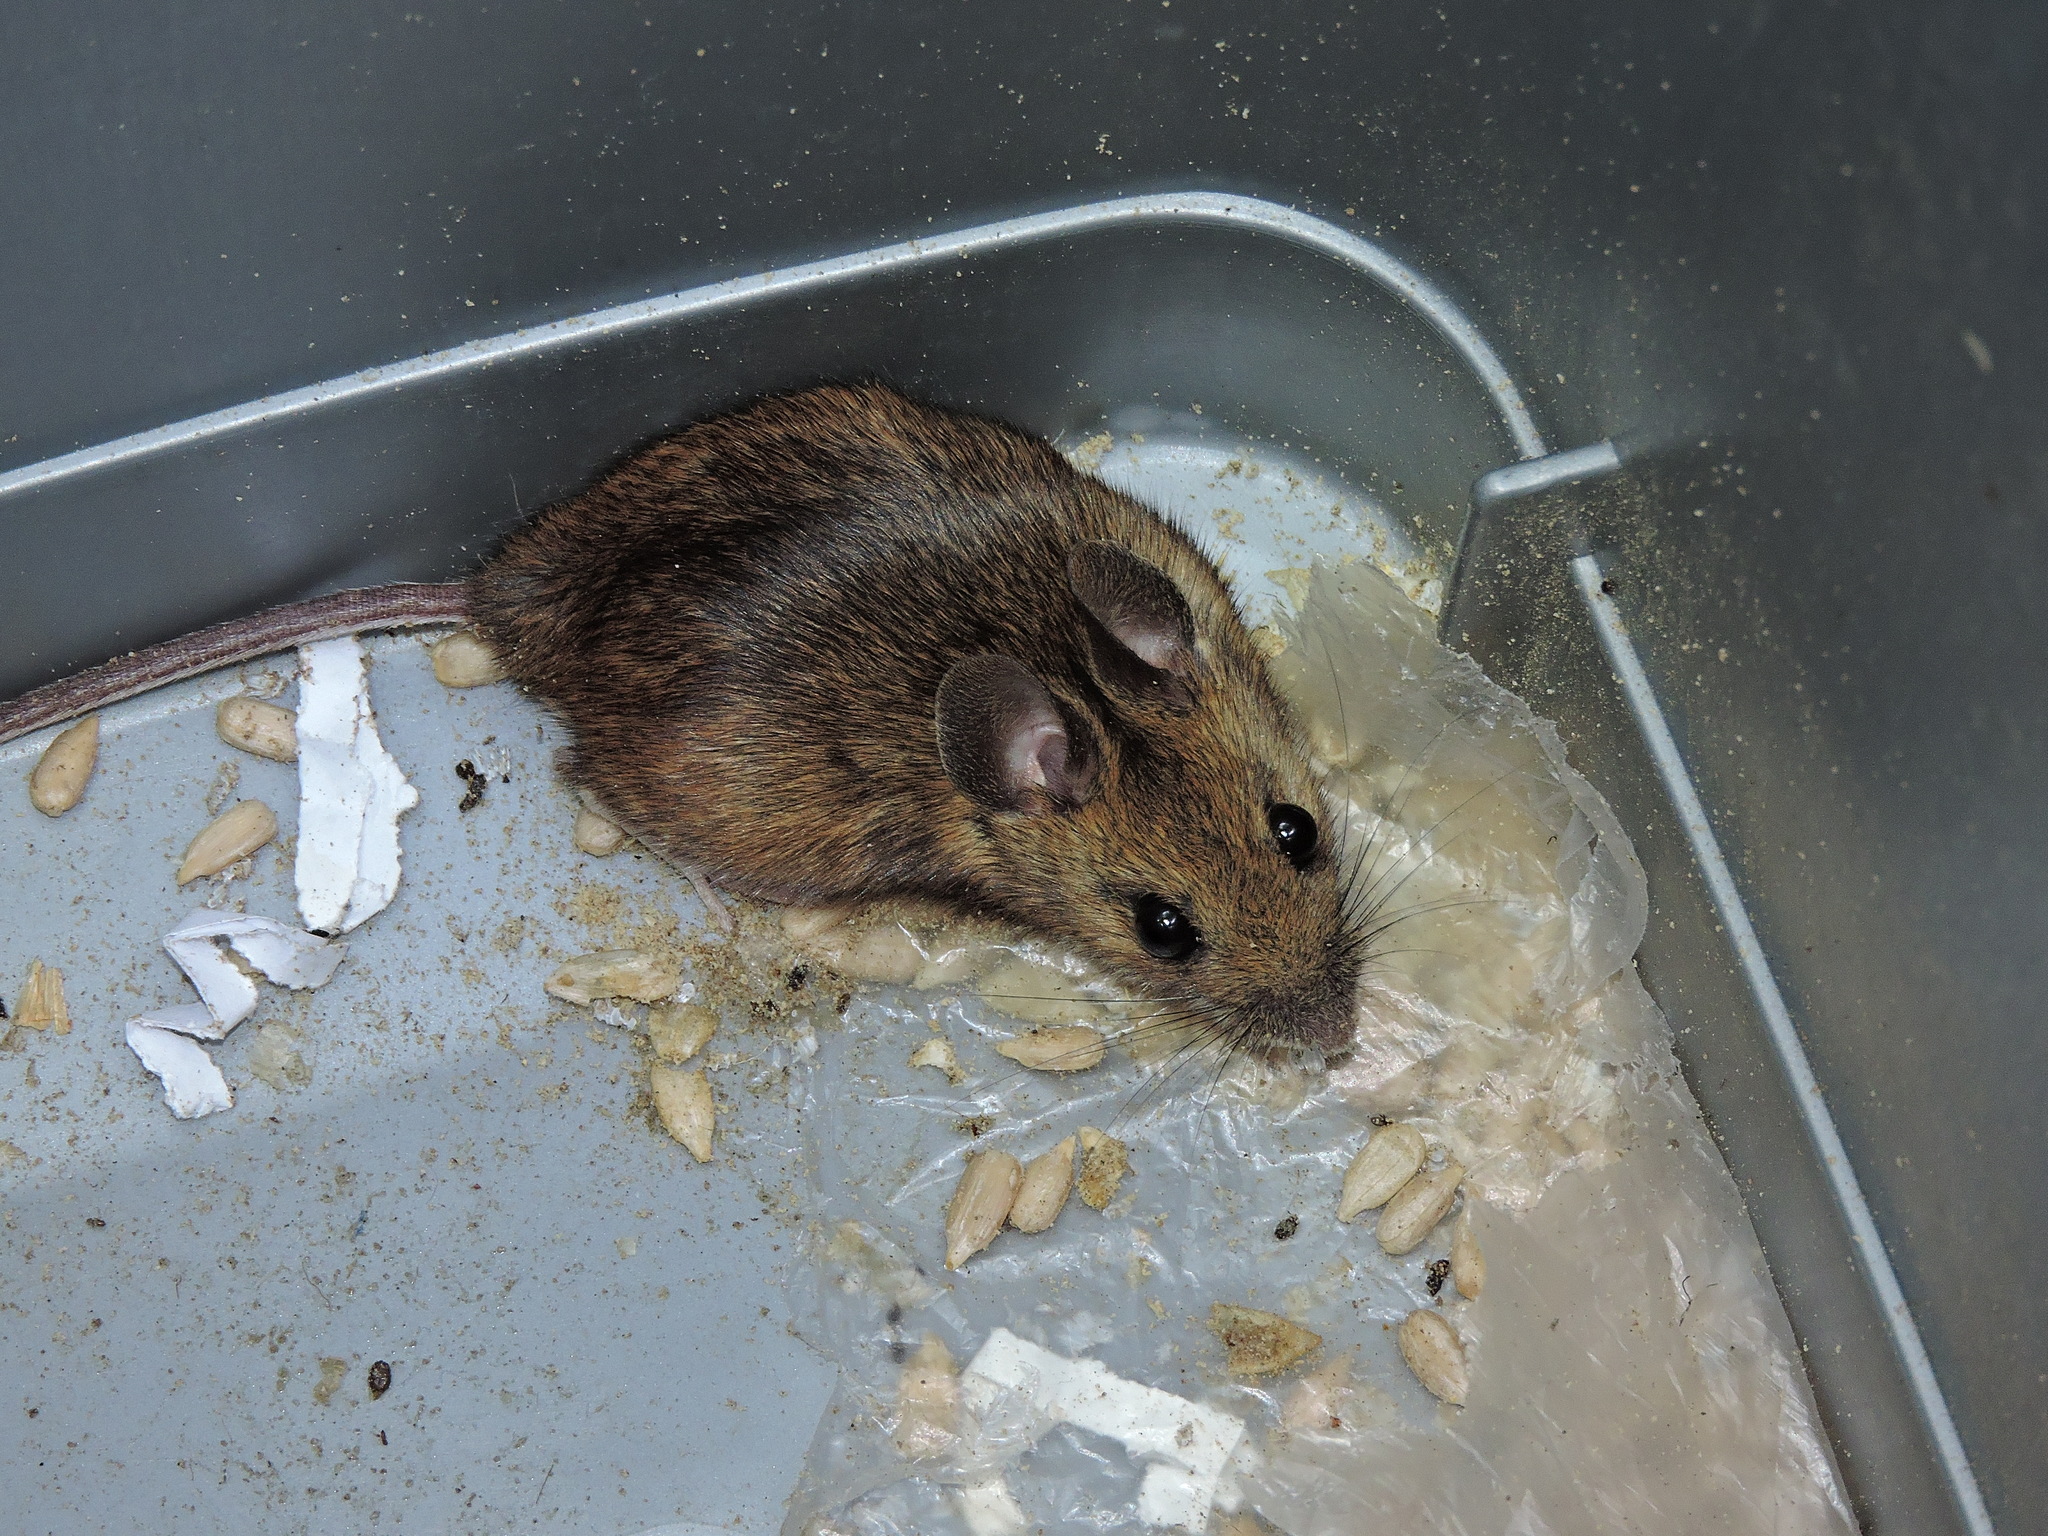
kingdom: Animalia
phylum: Chordata
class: Mammalia
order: Rodentia
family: Muridae
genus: Apodemus
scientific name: Apodemus sylvaticus
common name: Wood mouse
